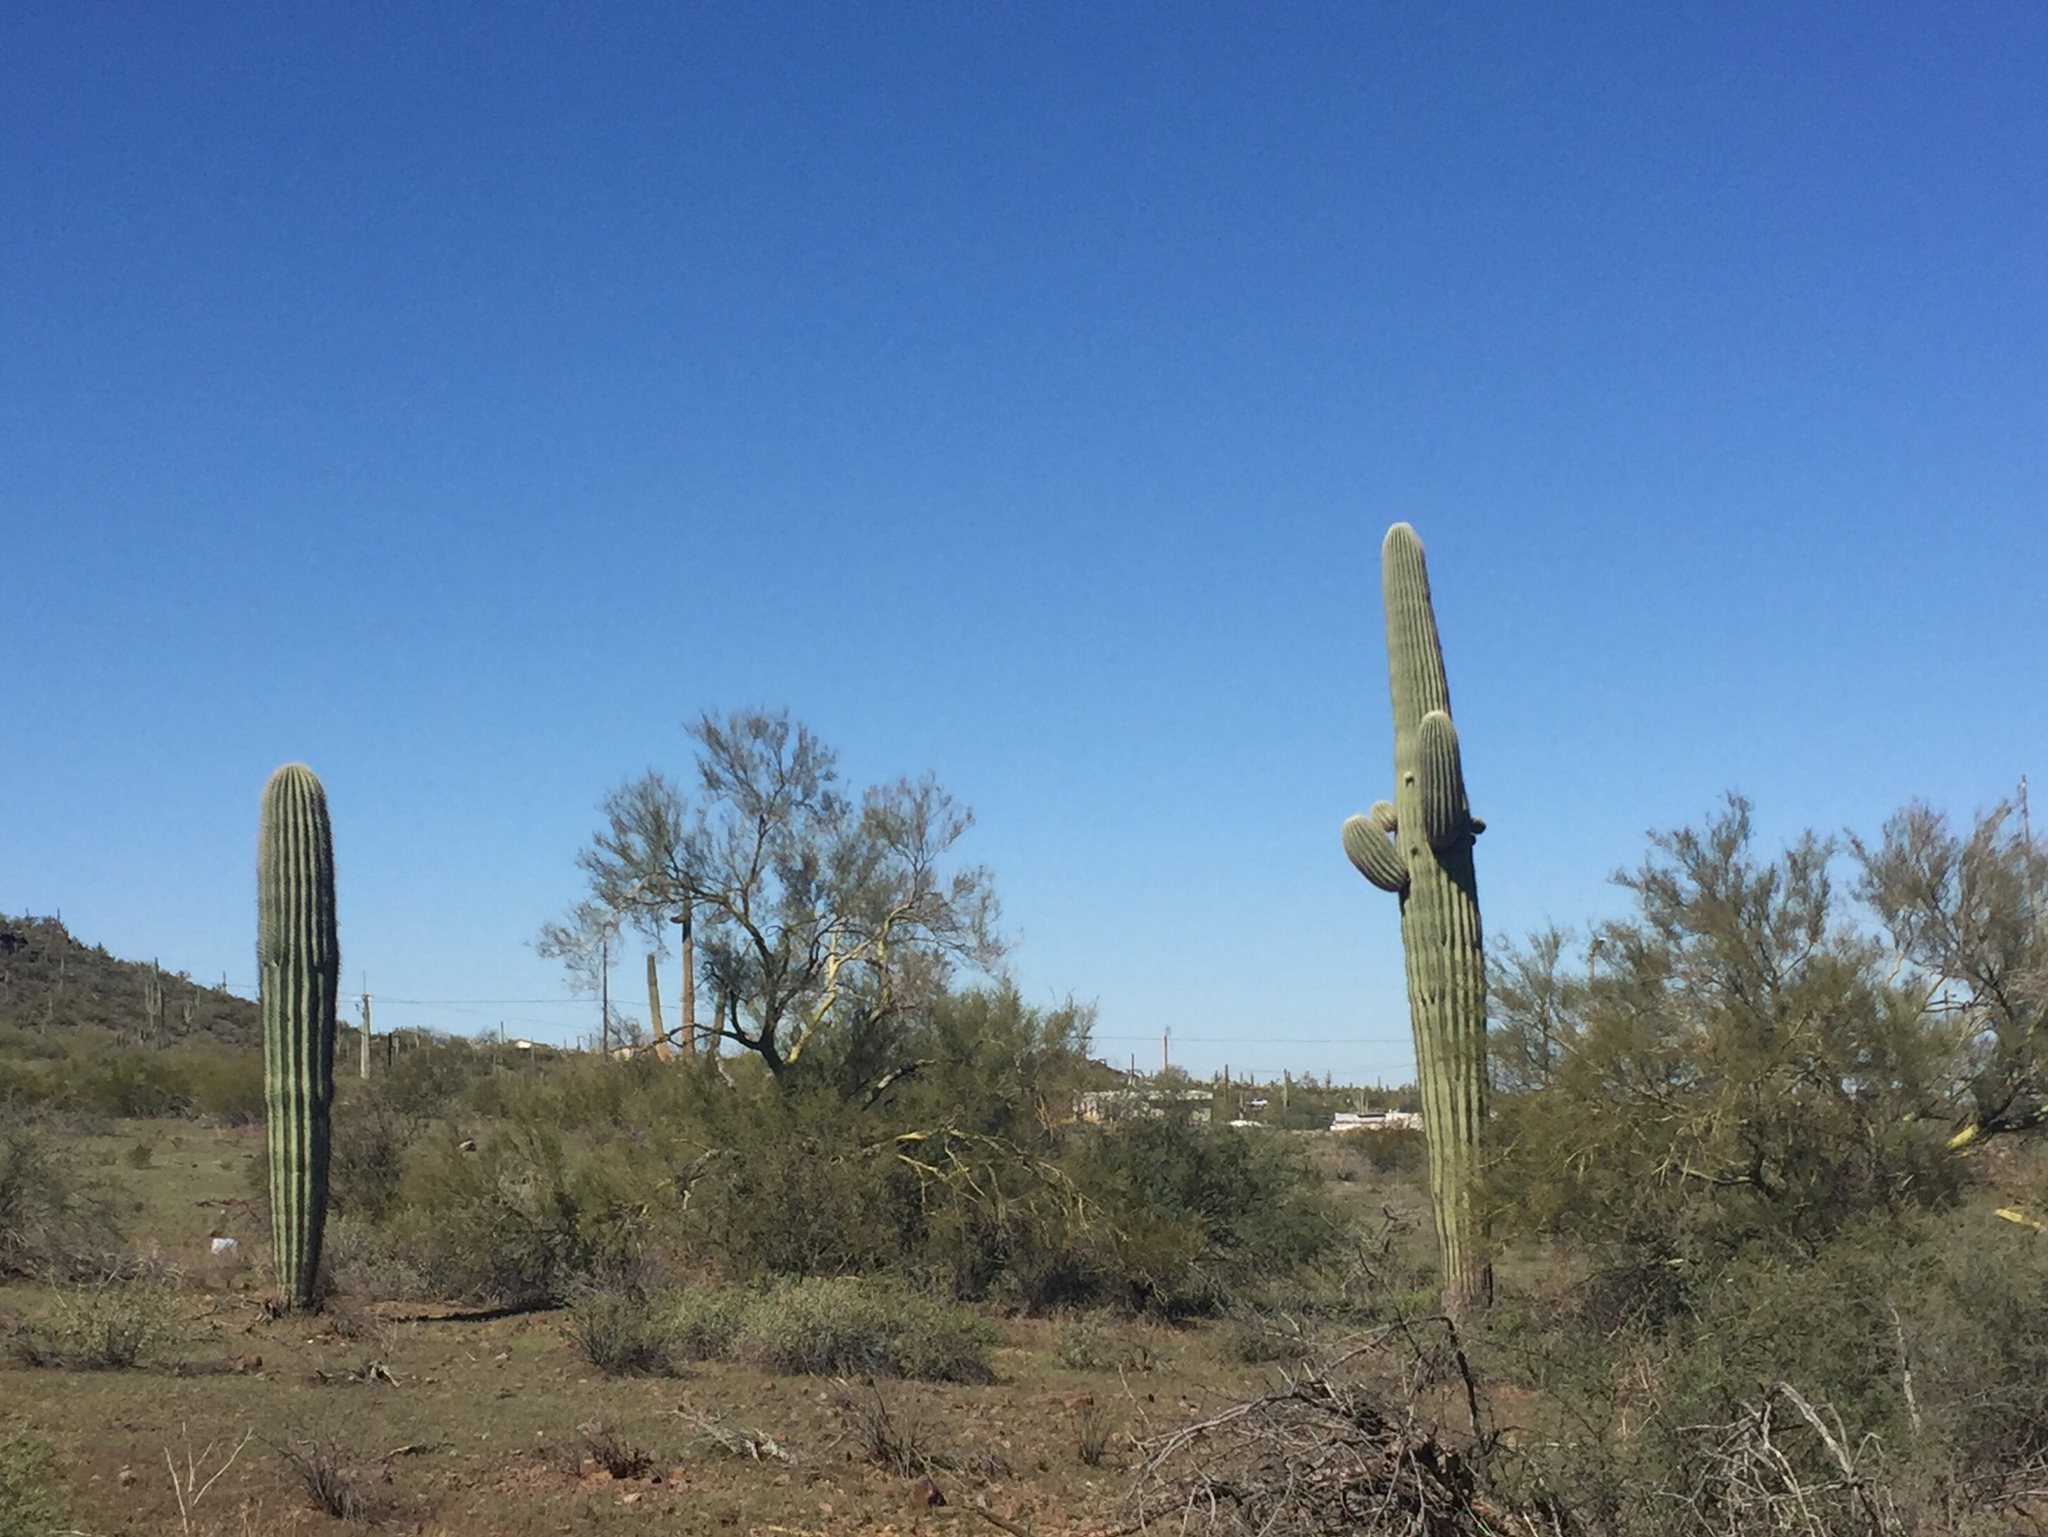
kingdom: Plantae
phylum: Tracheophyta
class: Magnoliopsida
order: Caryophyllales
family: Cactaceae
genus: Carnegiea
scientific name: Carnegiea gigantea
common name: Saguaro
